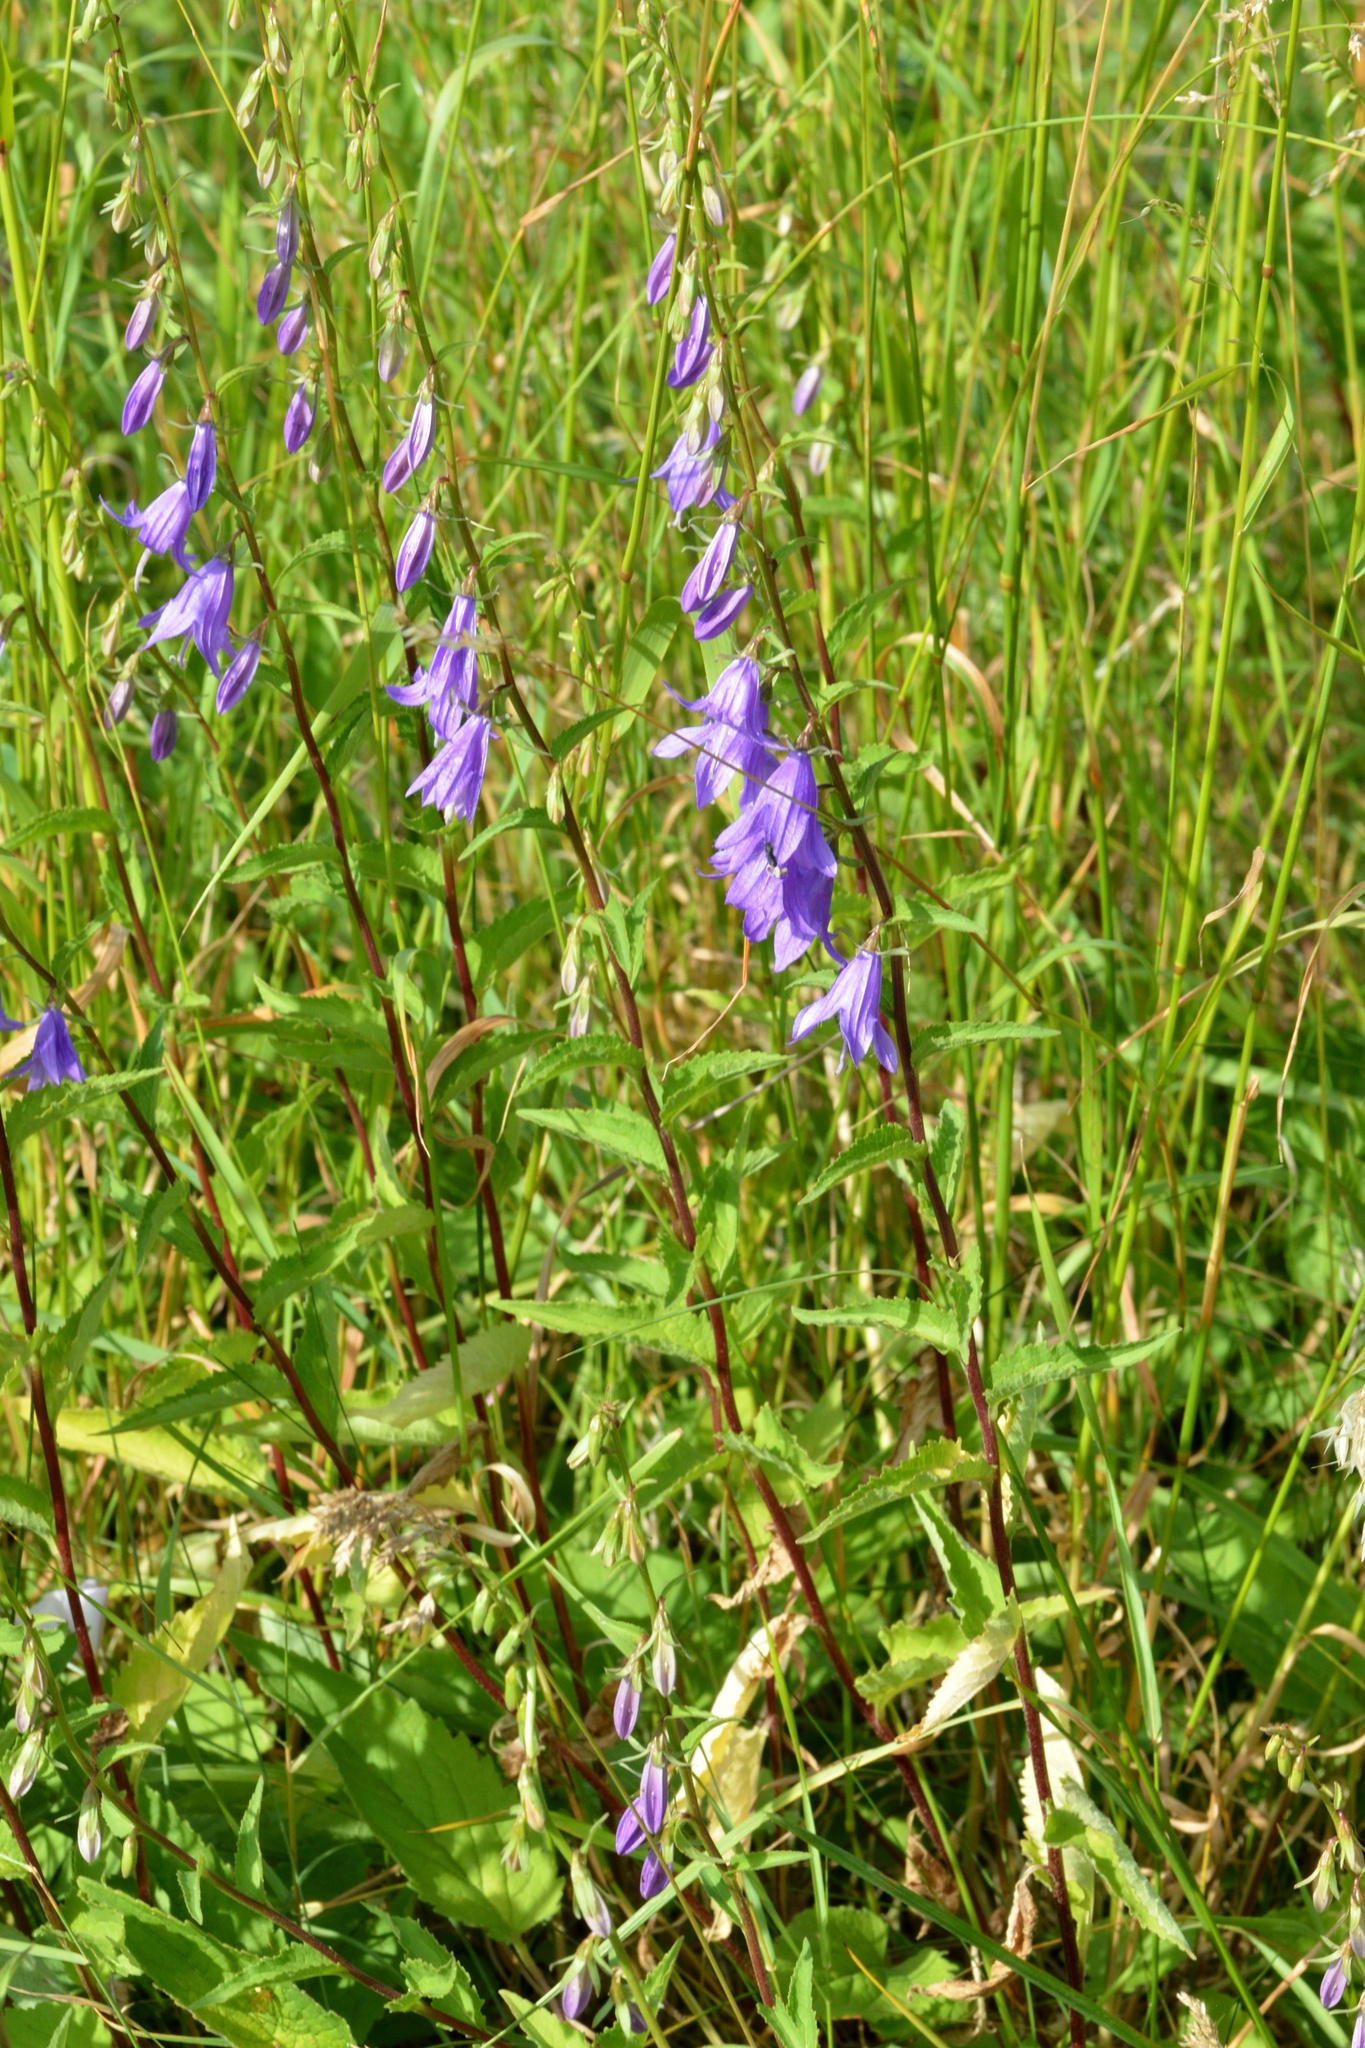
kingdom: Plantae
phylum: Tracheophyta
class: Magnoliopsida
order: Asterales
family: Campanulaceae
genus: Campanula
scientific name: Campanula rapunculoides
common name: Creeping bellflower
